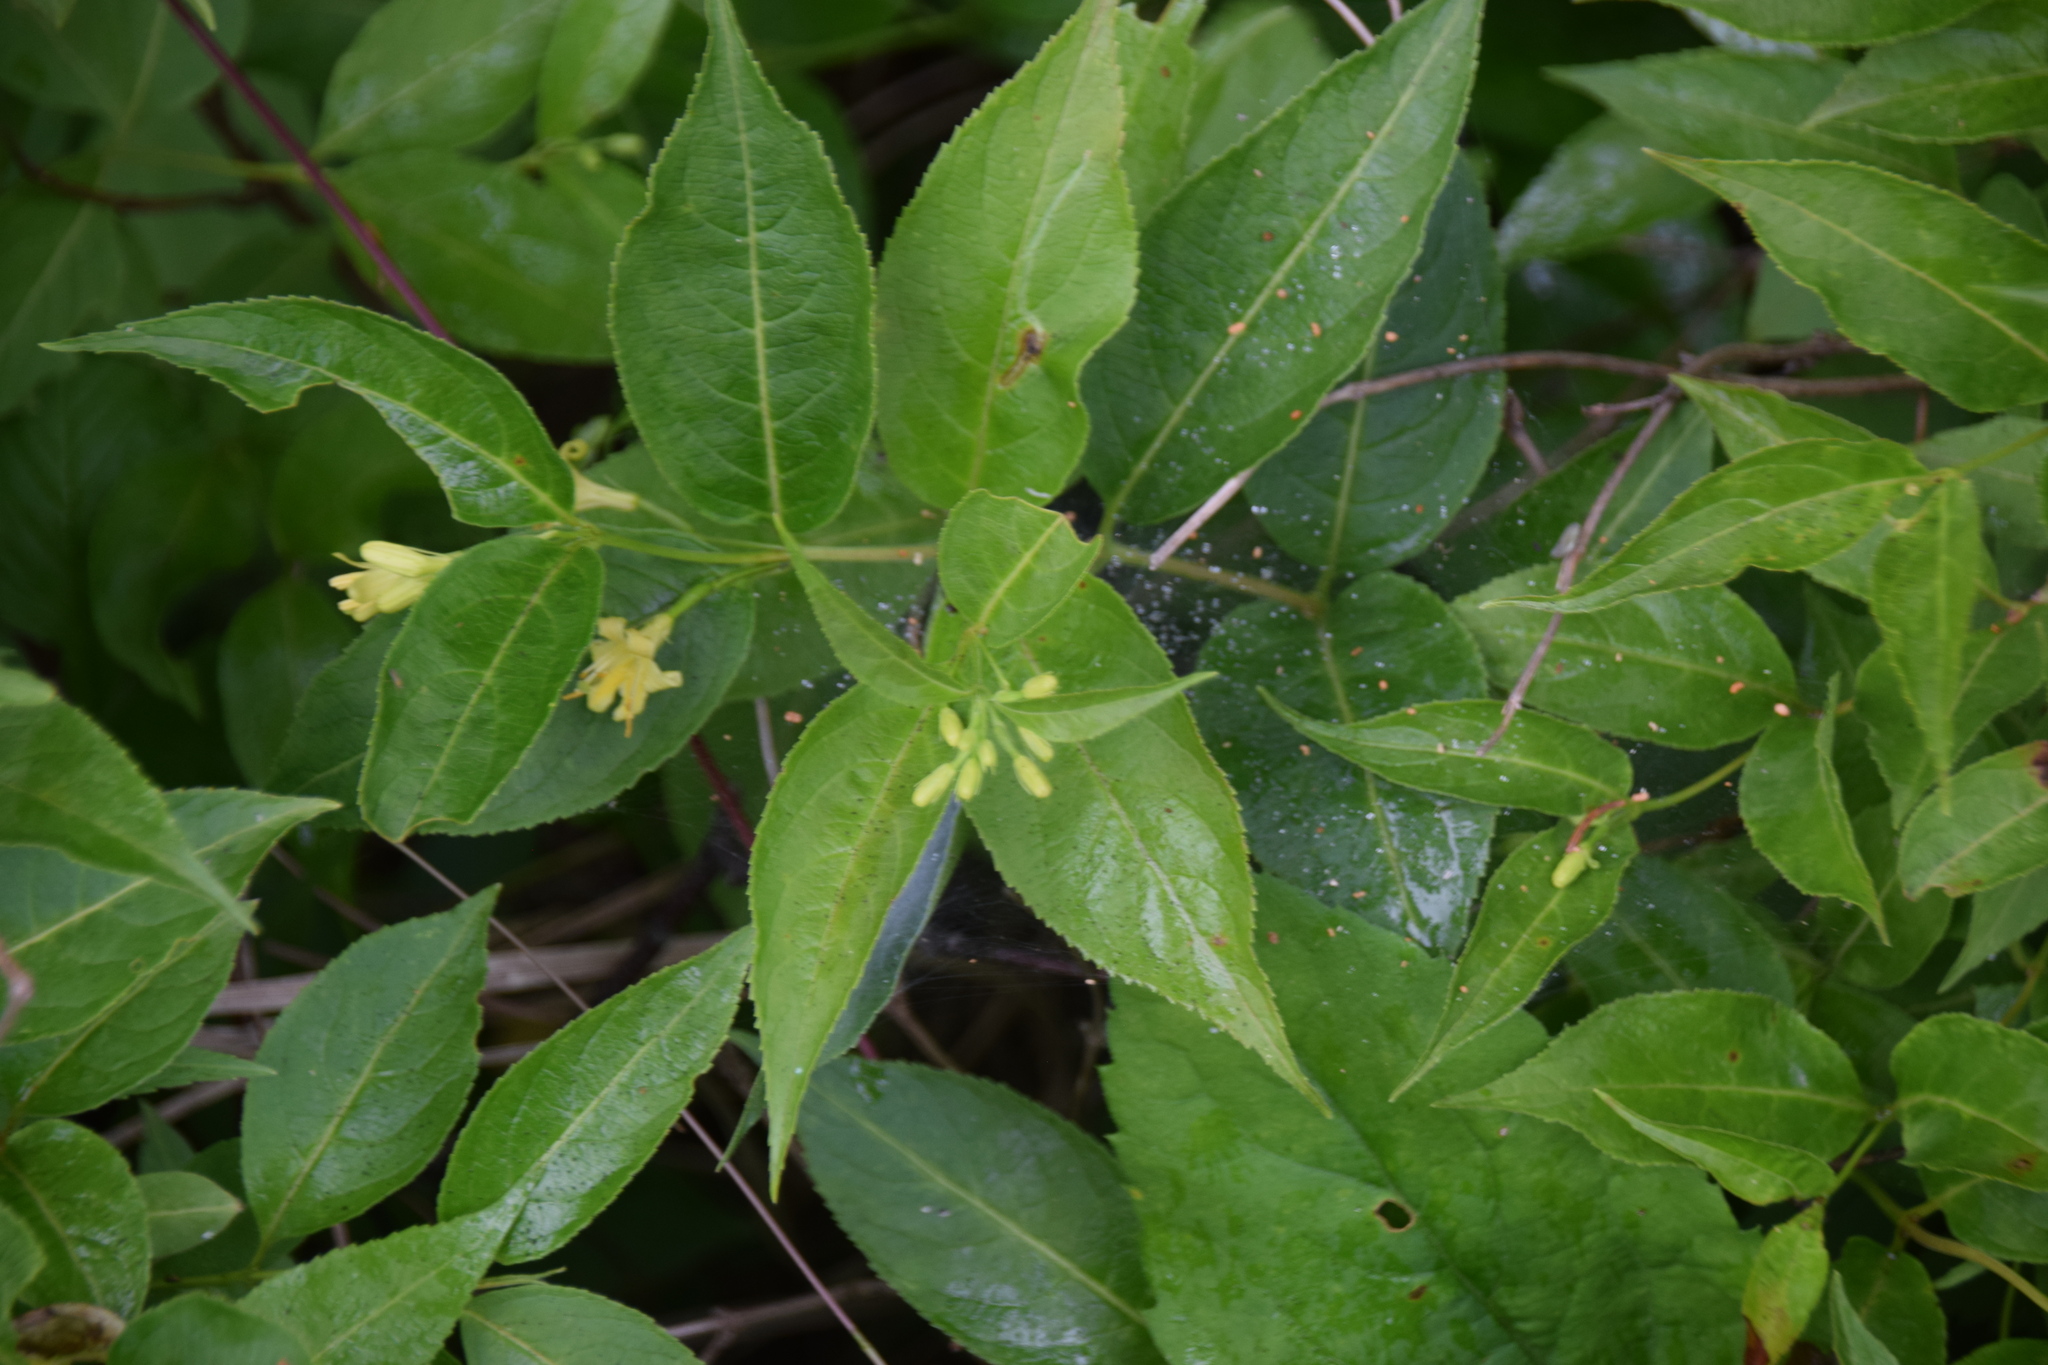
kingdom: Plantae
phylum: Tracheophyta
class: Magnoliopsida
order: Dipsacales
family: Caprifoliaceae
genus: Diervilla
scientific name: Diervilla lonicera
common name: Bush-honeysuckle
